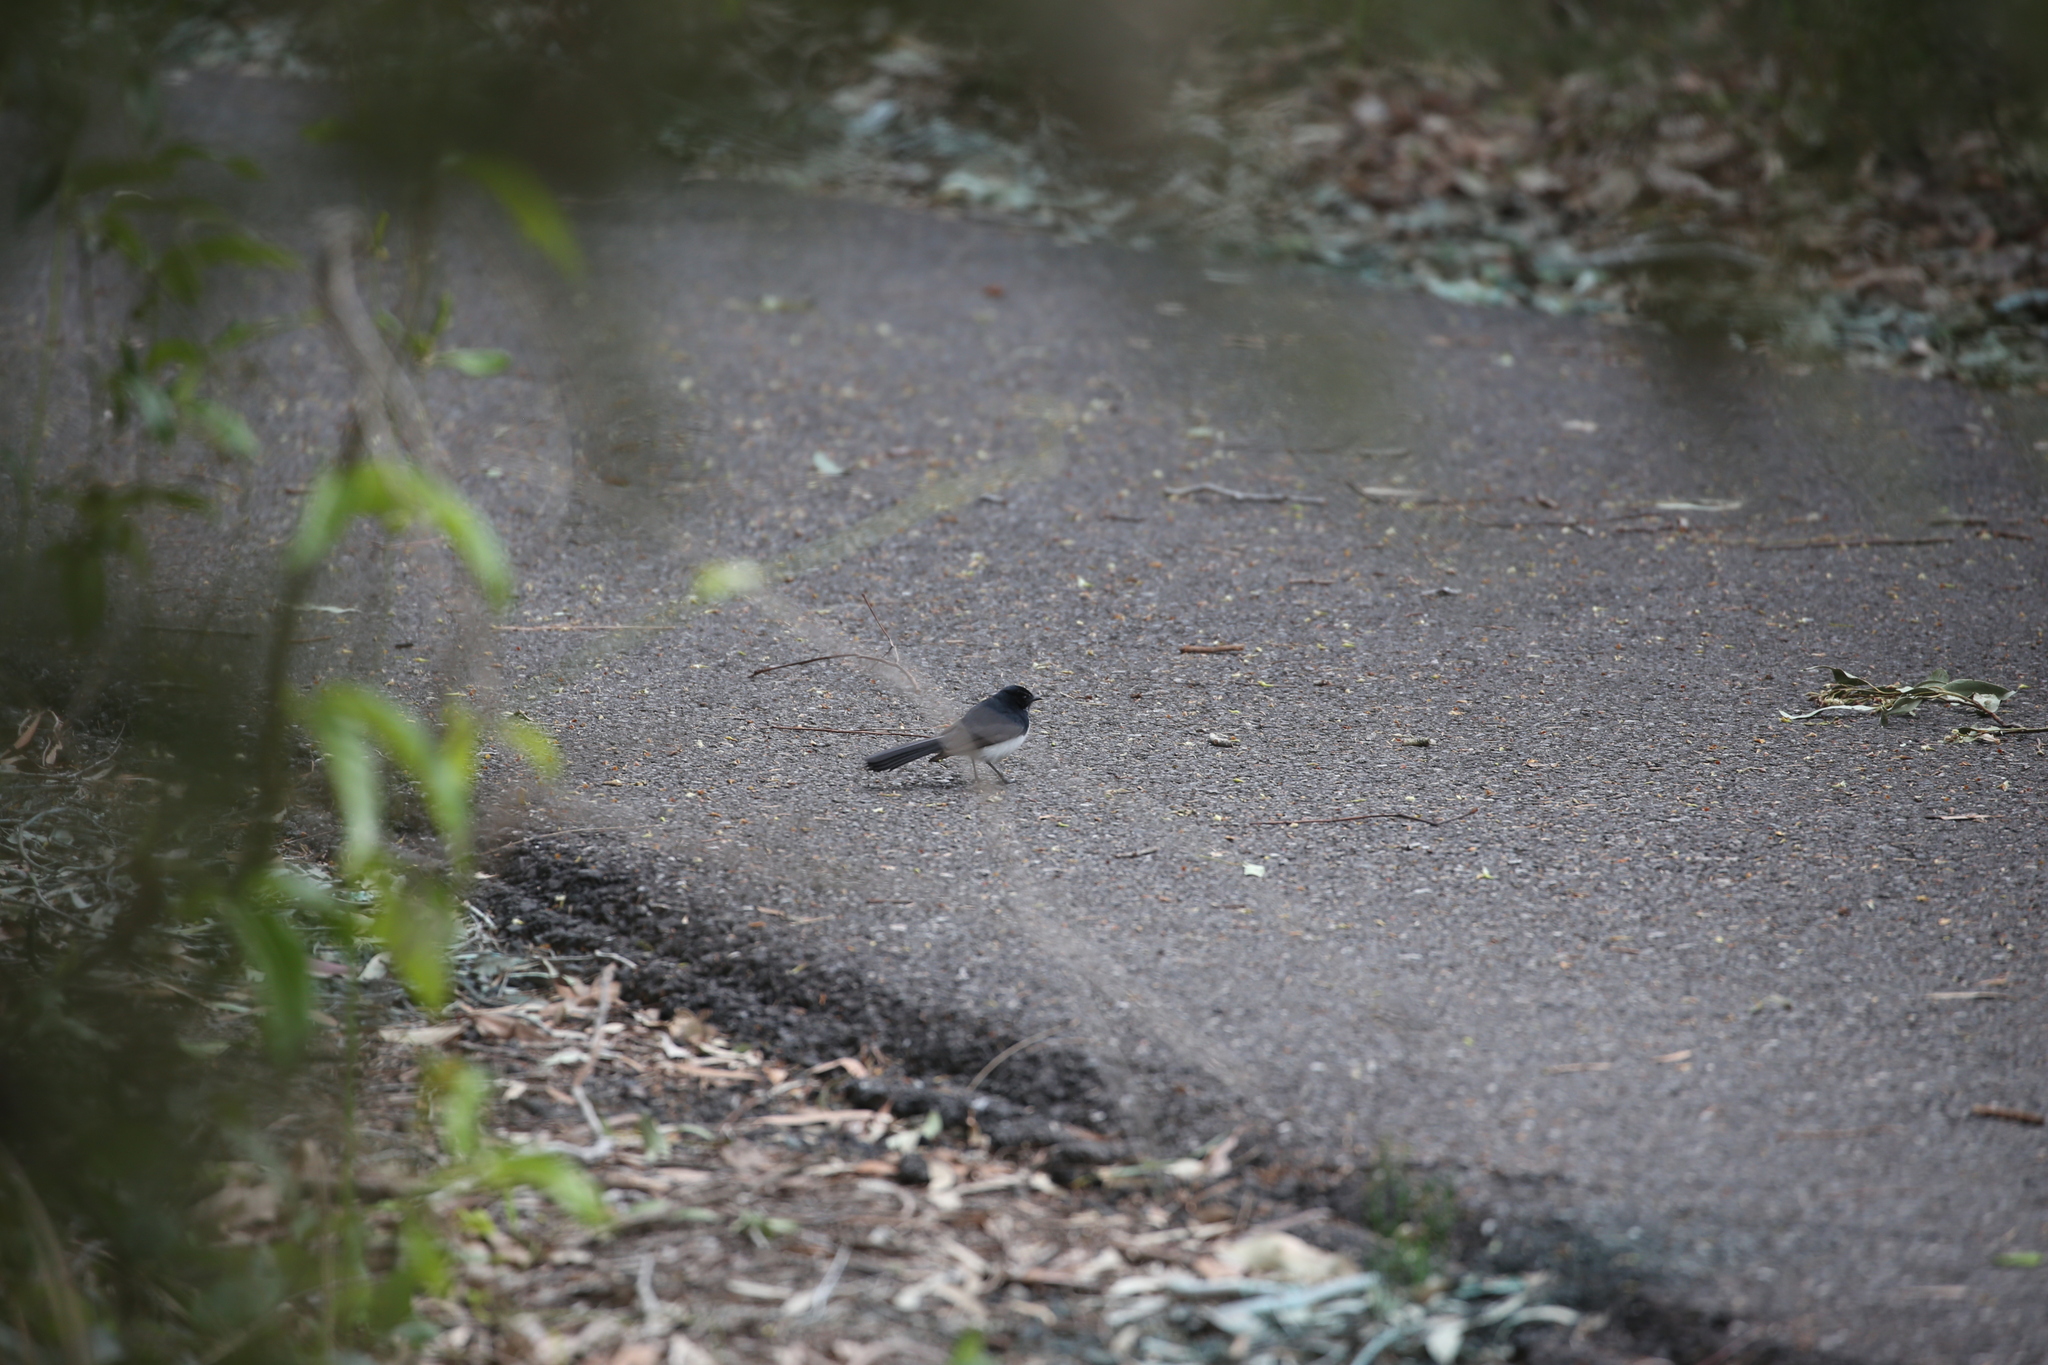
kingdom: Animalia
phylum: Chordata
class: Aves
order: Passeriformes
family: Rhipiduridae
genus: Rhipidura
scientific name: Rhipidura leucophrys
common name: Willie wagtail
